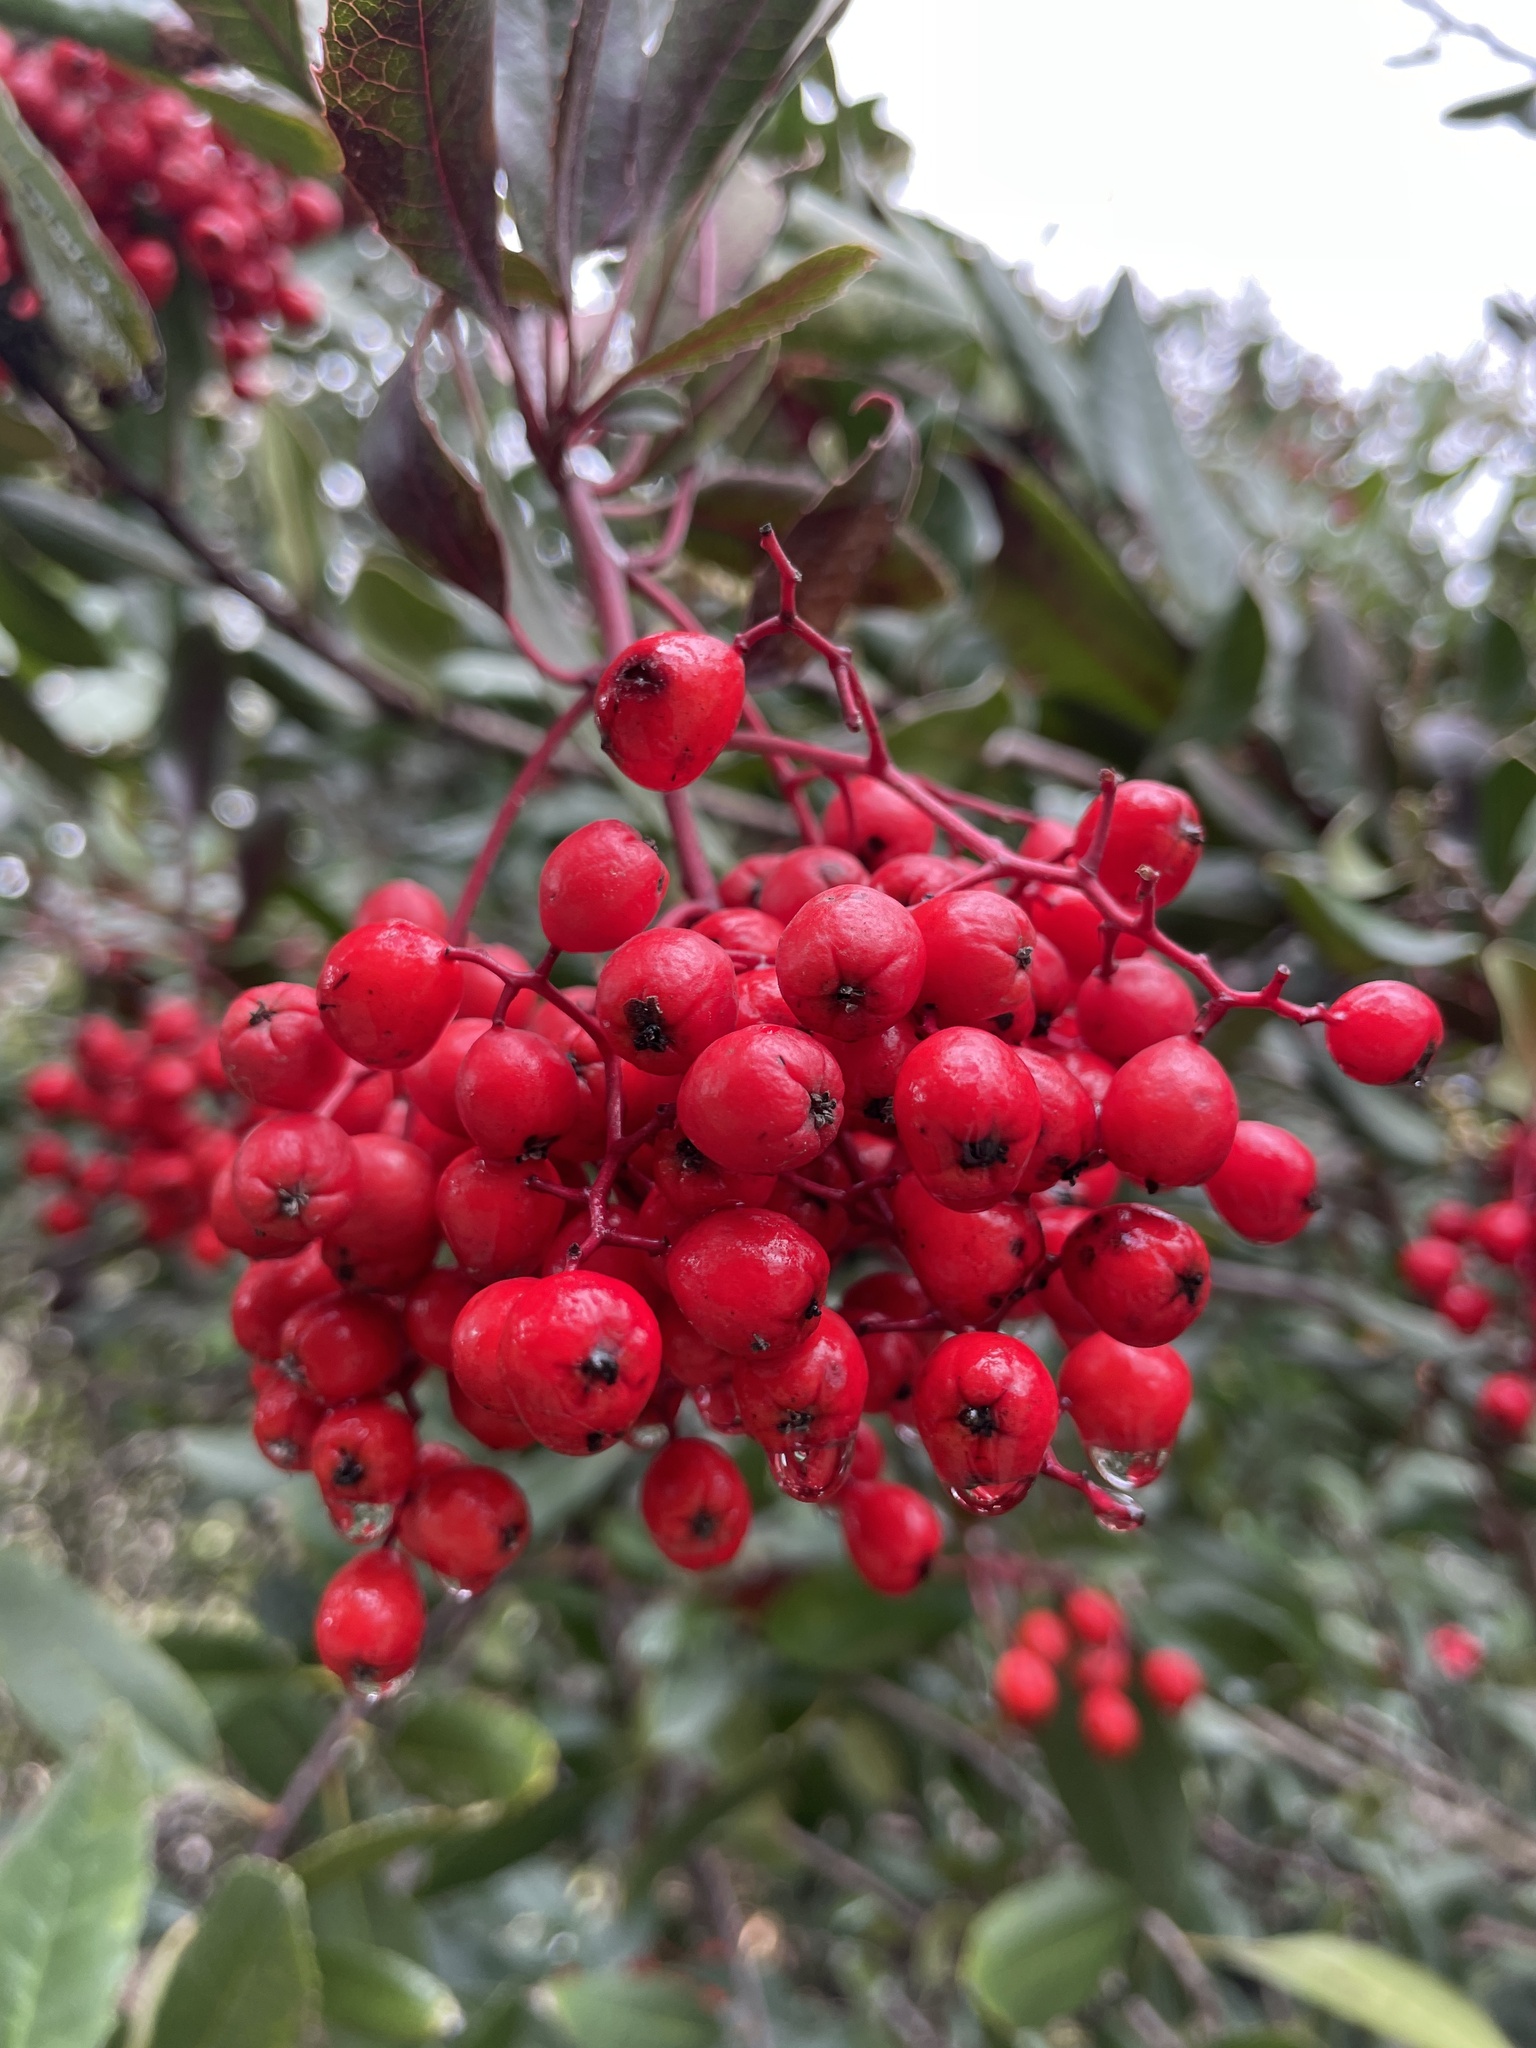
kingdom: Plantae
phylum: Tracheophyta
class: Magnoliopsida
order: Rosales
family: Rosaceae
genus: Heteromeles
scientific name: Heteromeles arbutifolia
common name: California-holly
